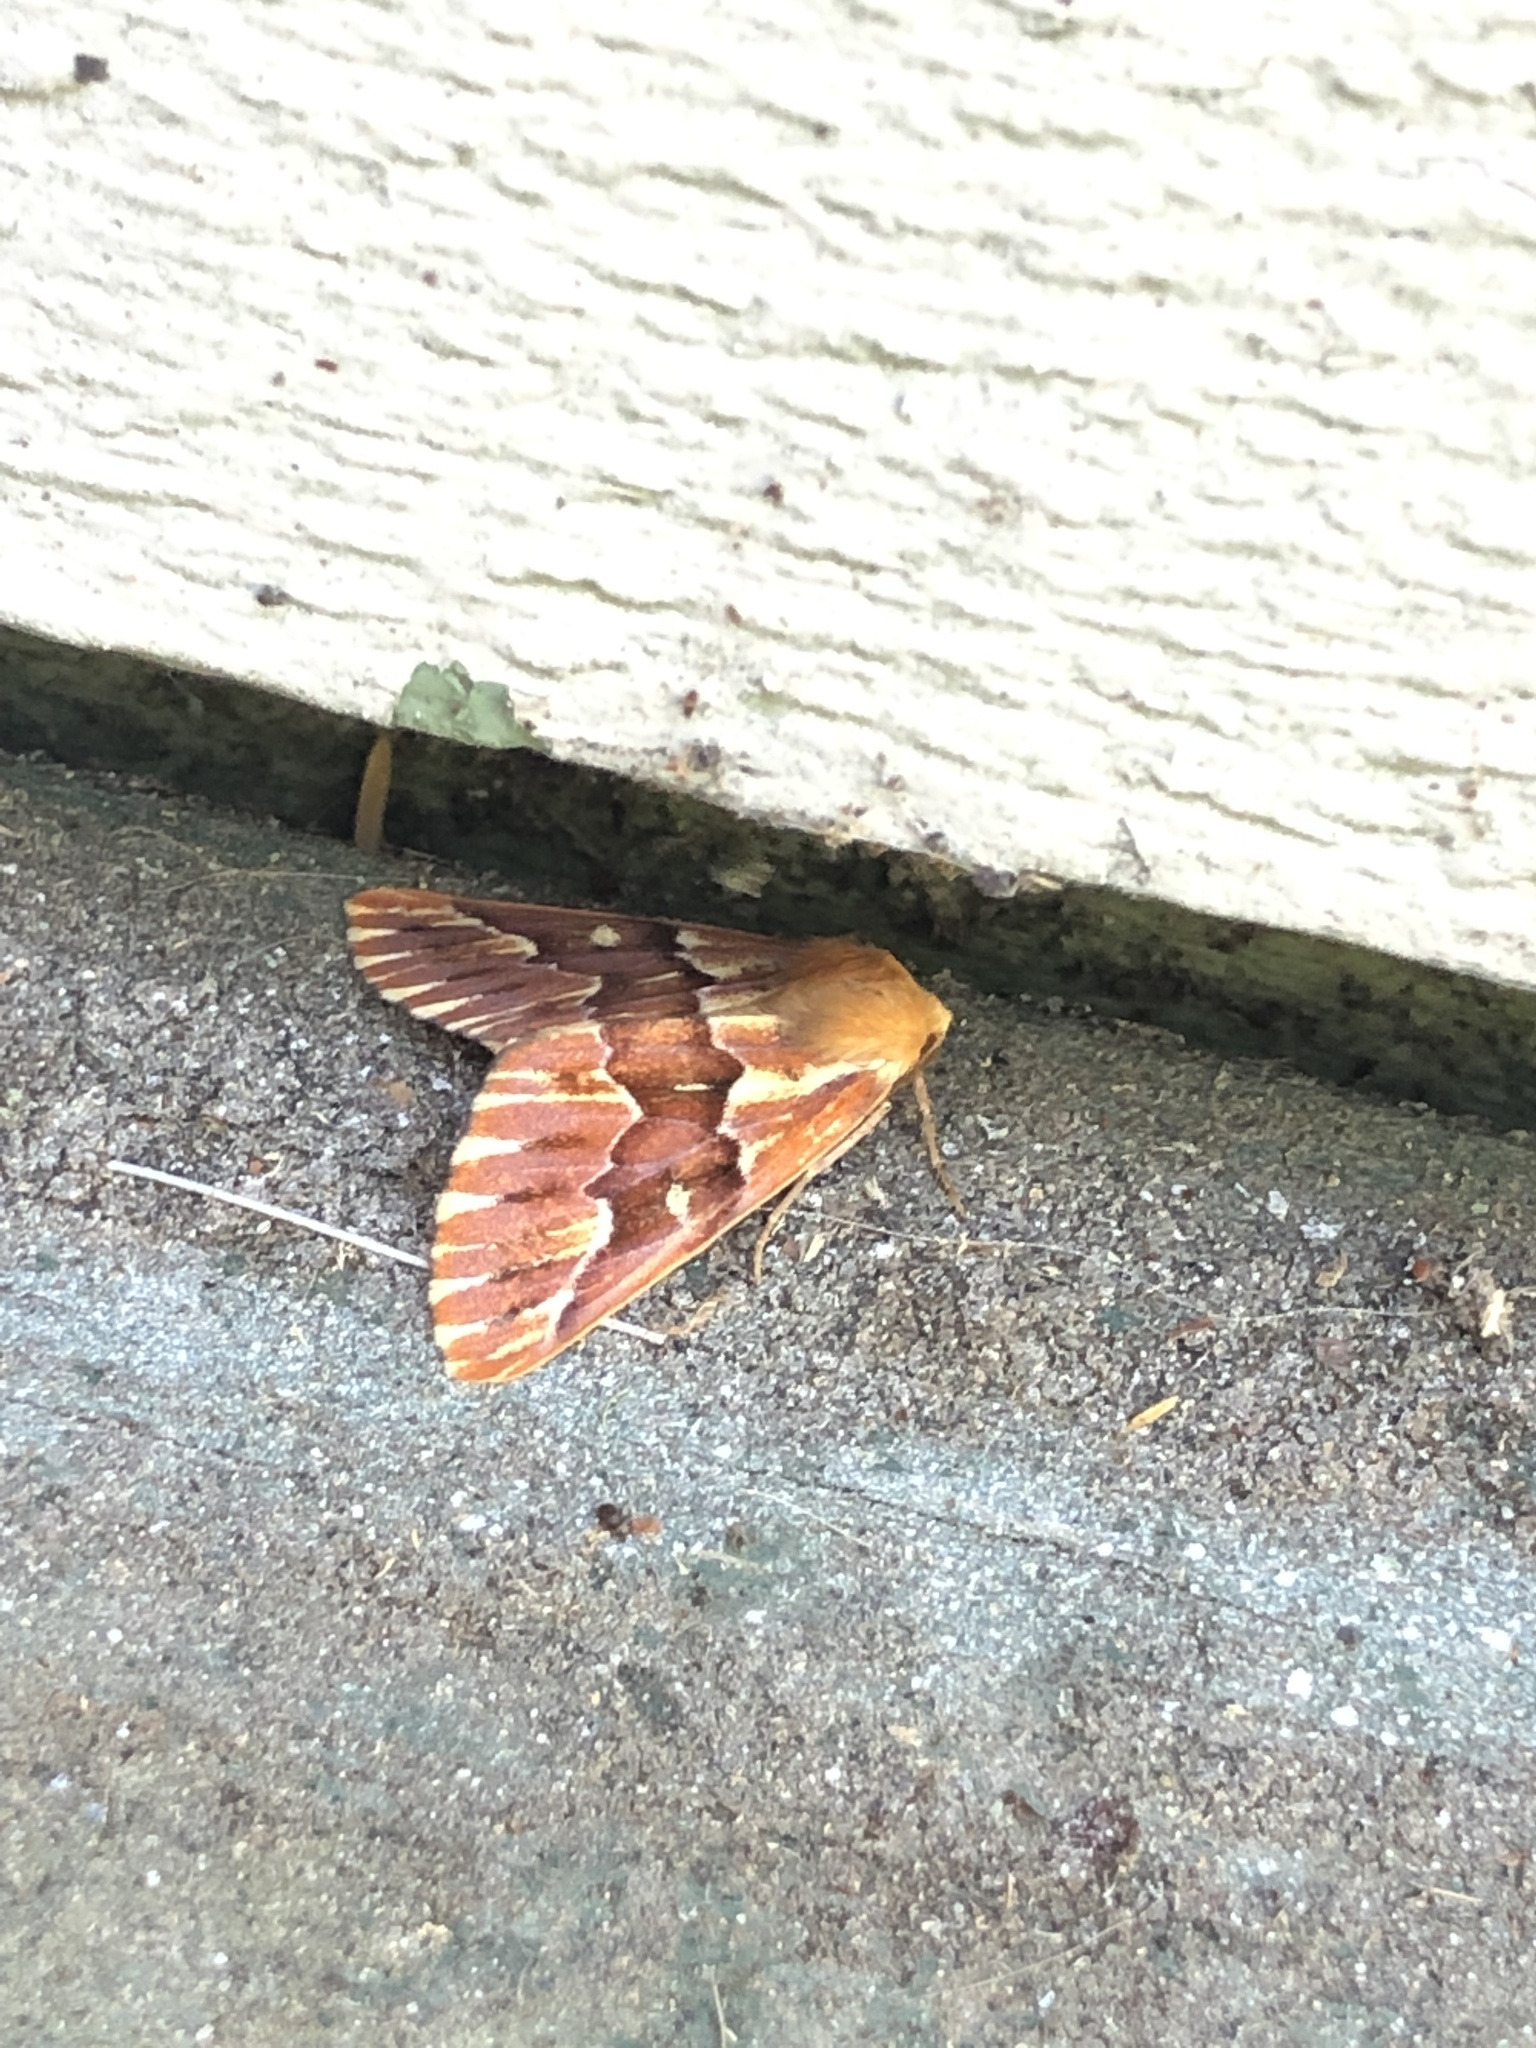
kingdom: Animalia
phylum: Arthropoda
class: Insecta
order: Lepidoptera
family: Geometridae
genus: Caripeta
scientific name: Caripeta aequaliaria
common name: Red girdle moth
